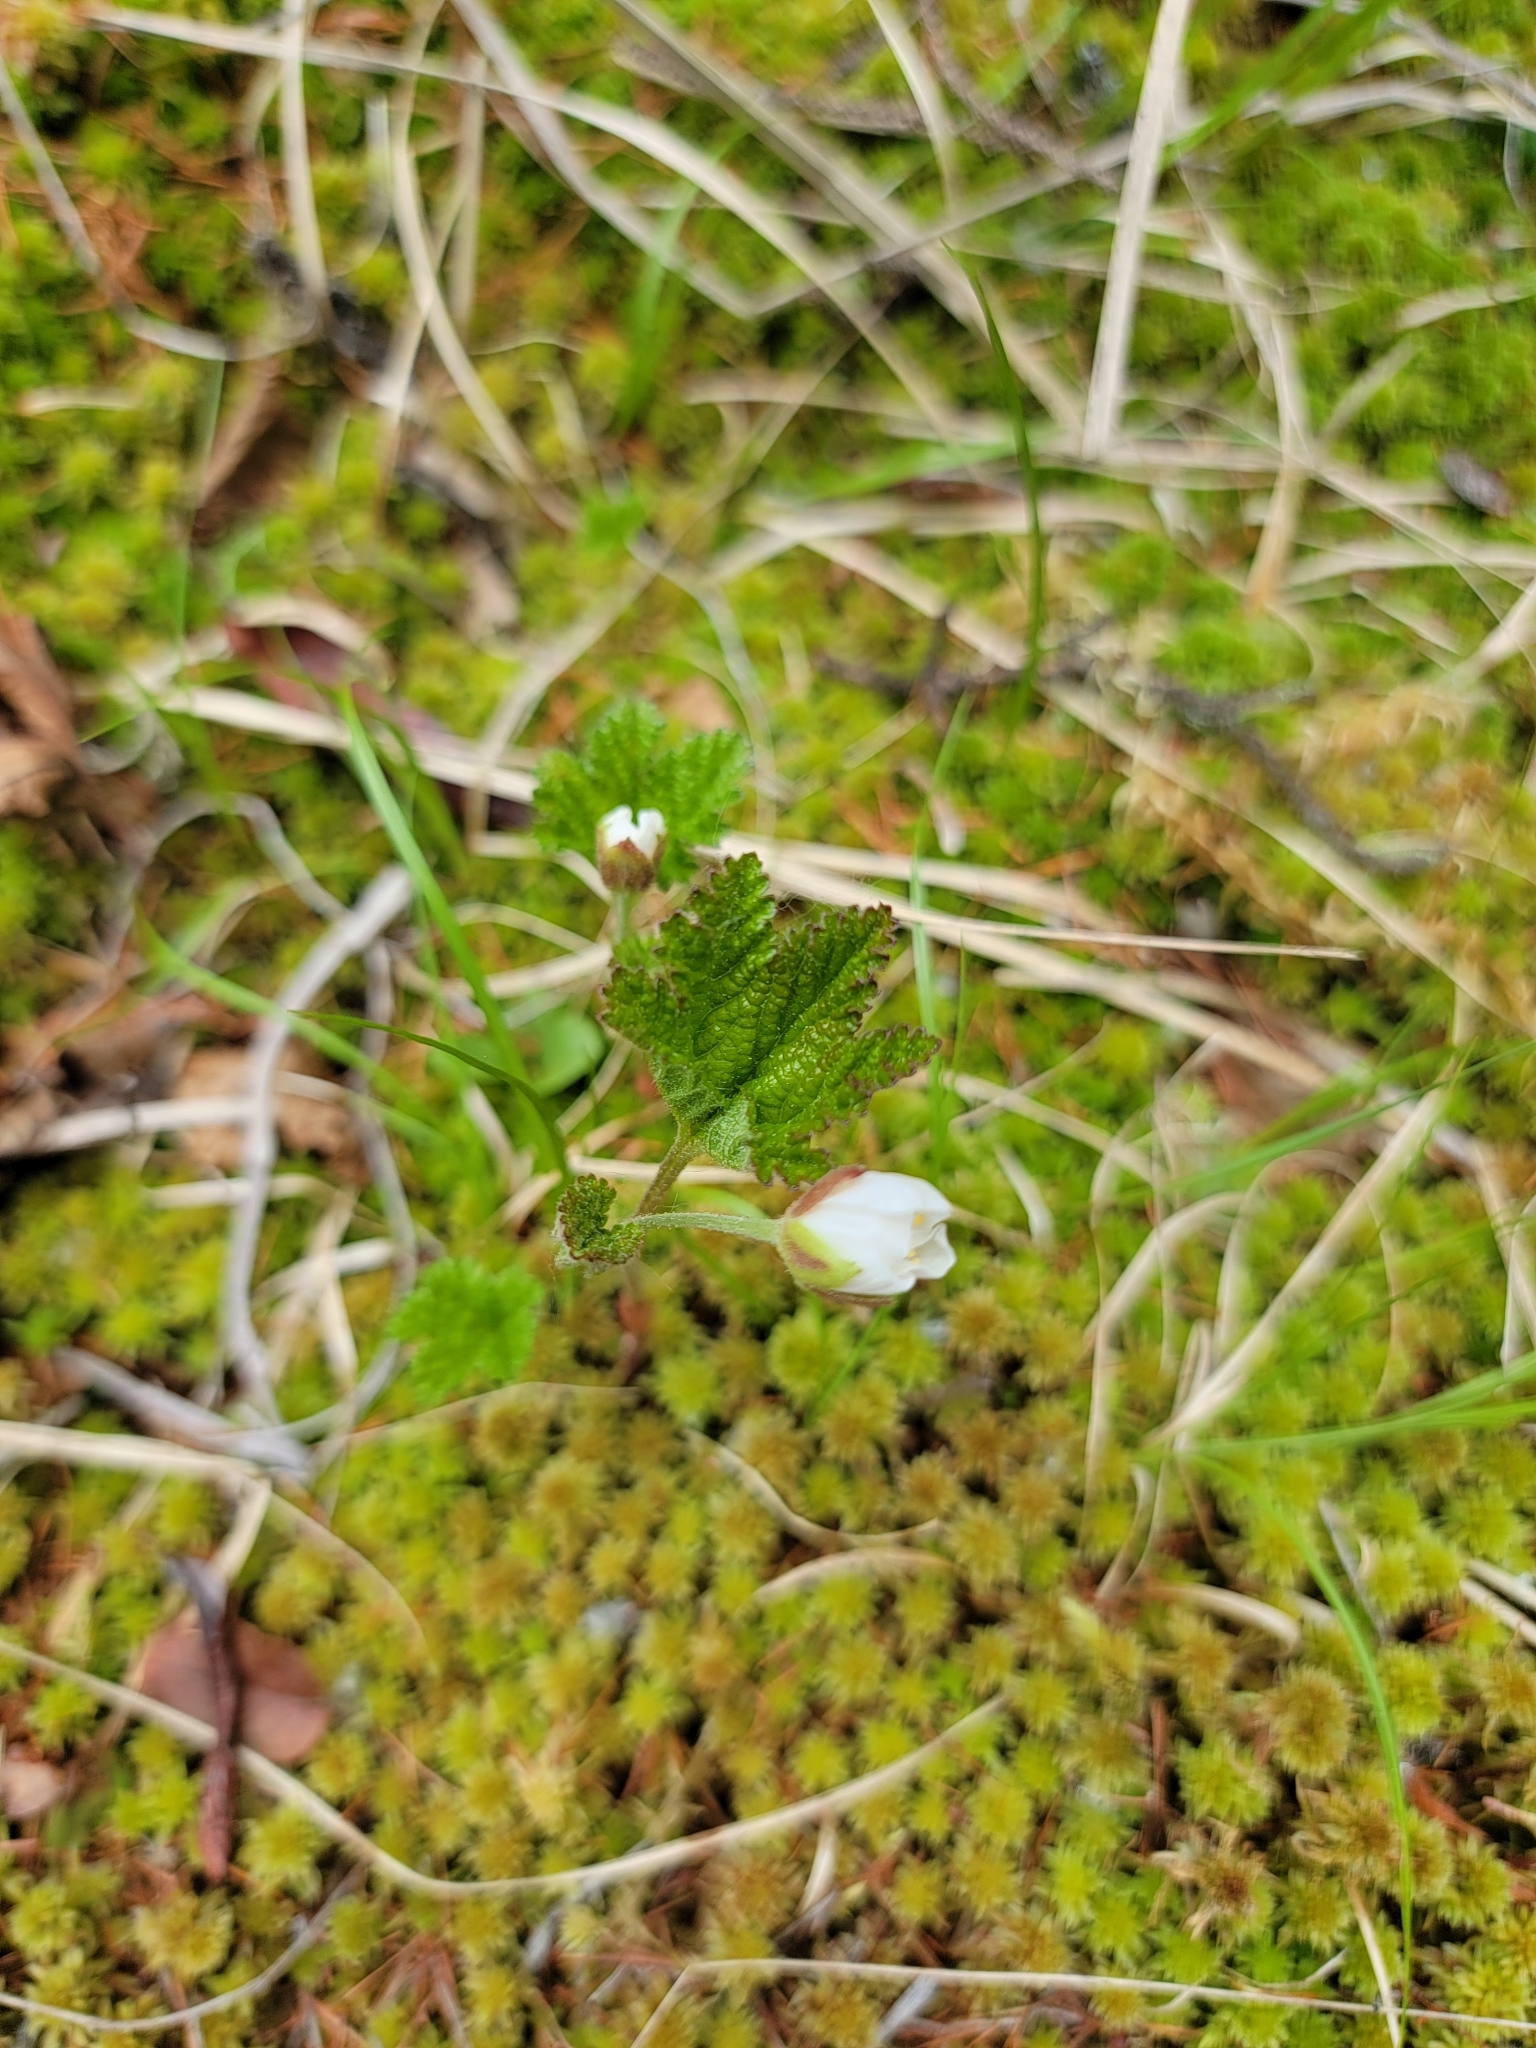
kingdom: Plantae
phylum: Tracheophyta
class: Magnoliopsida
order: Rosales
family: Rosaceae
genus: Rubus
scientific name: Rubus chamaemorus
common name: Cloudberry
